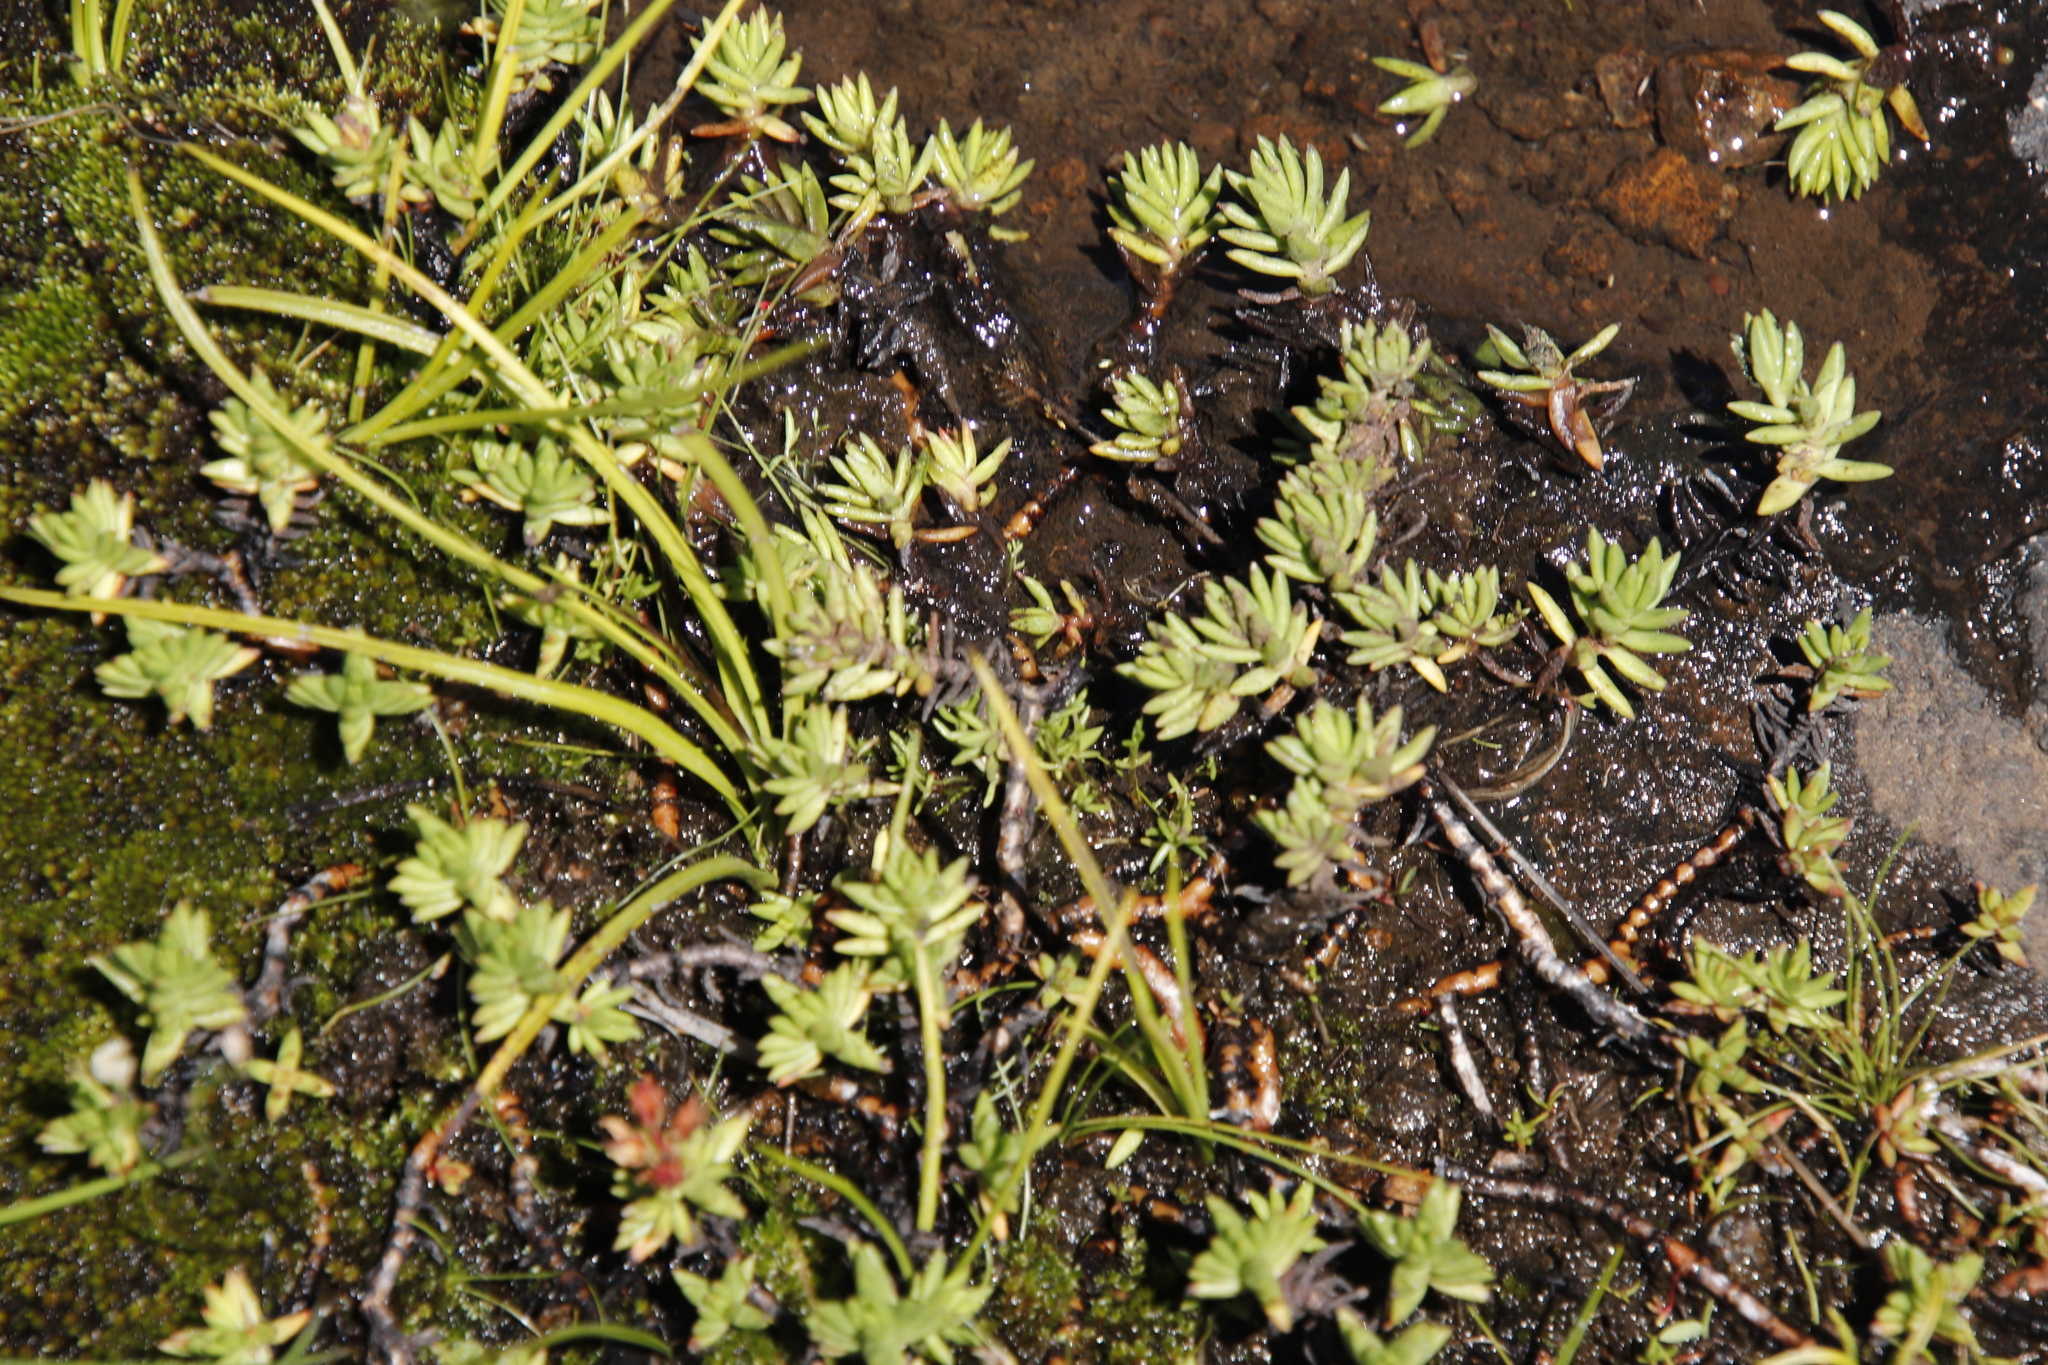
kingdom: Plantae
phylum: Tracheophyta
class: Magnoliopsida
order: Saxifragales
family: Crassulaceae
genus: Crassula
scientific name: Crassula dependens
